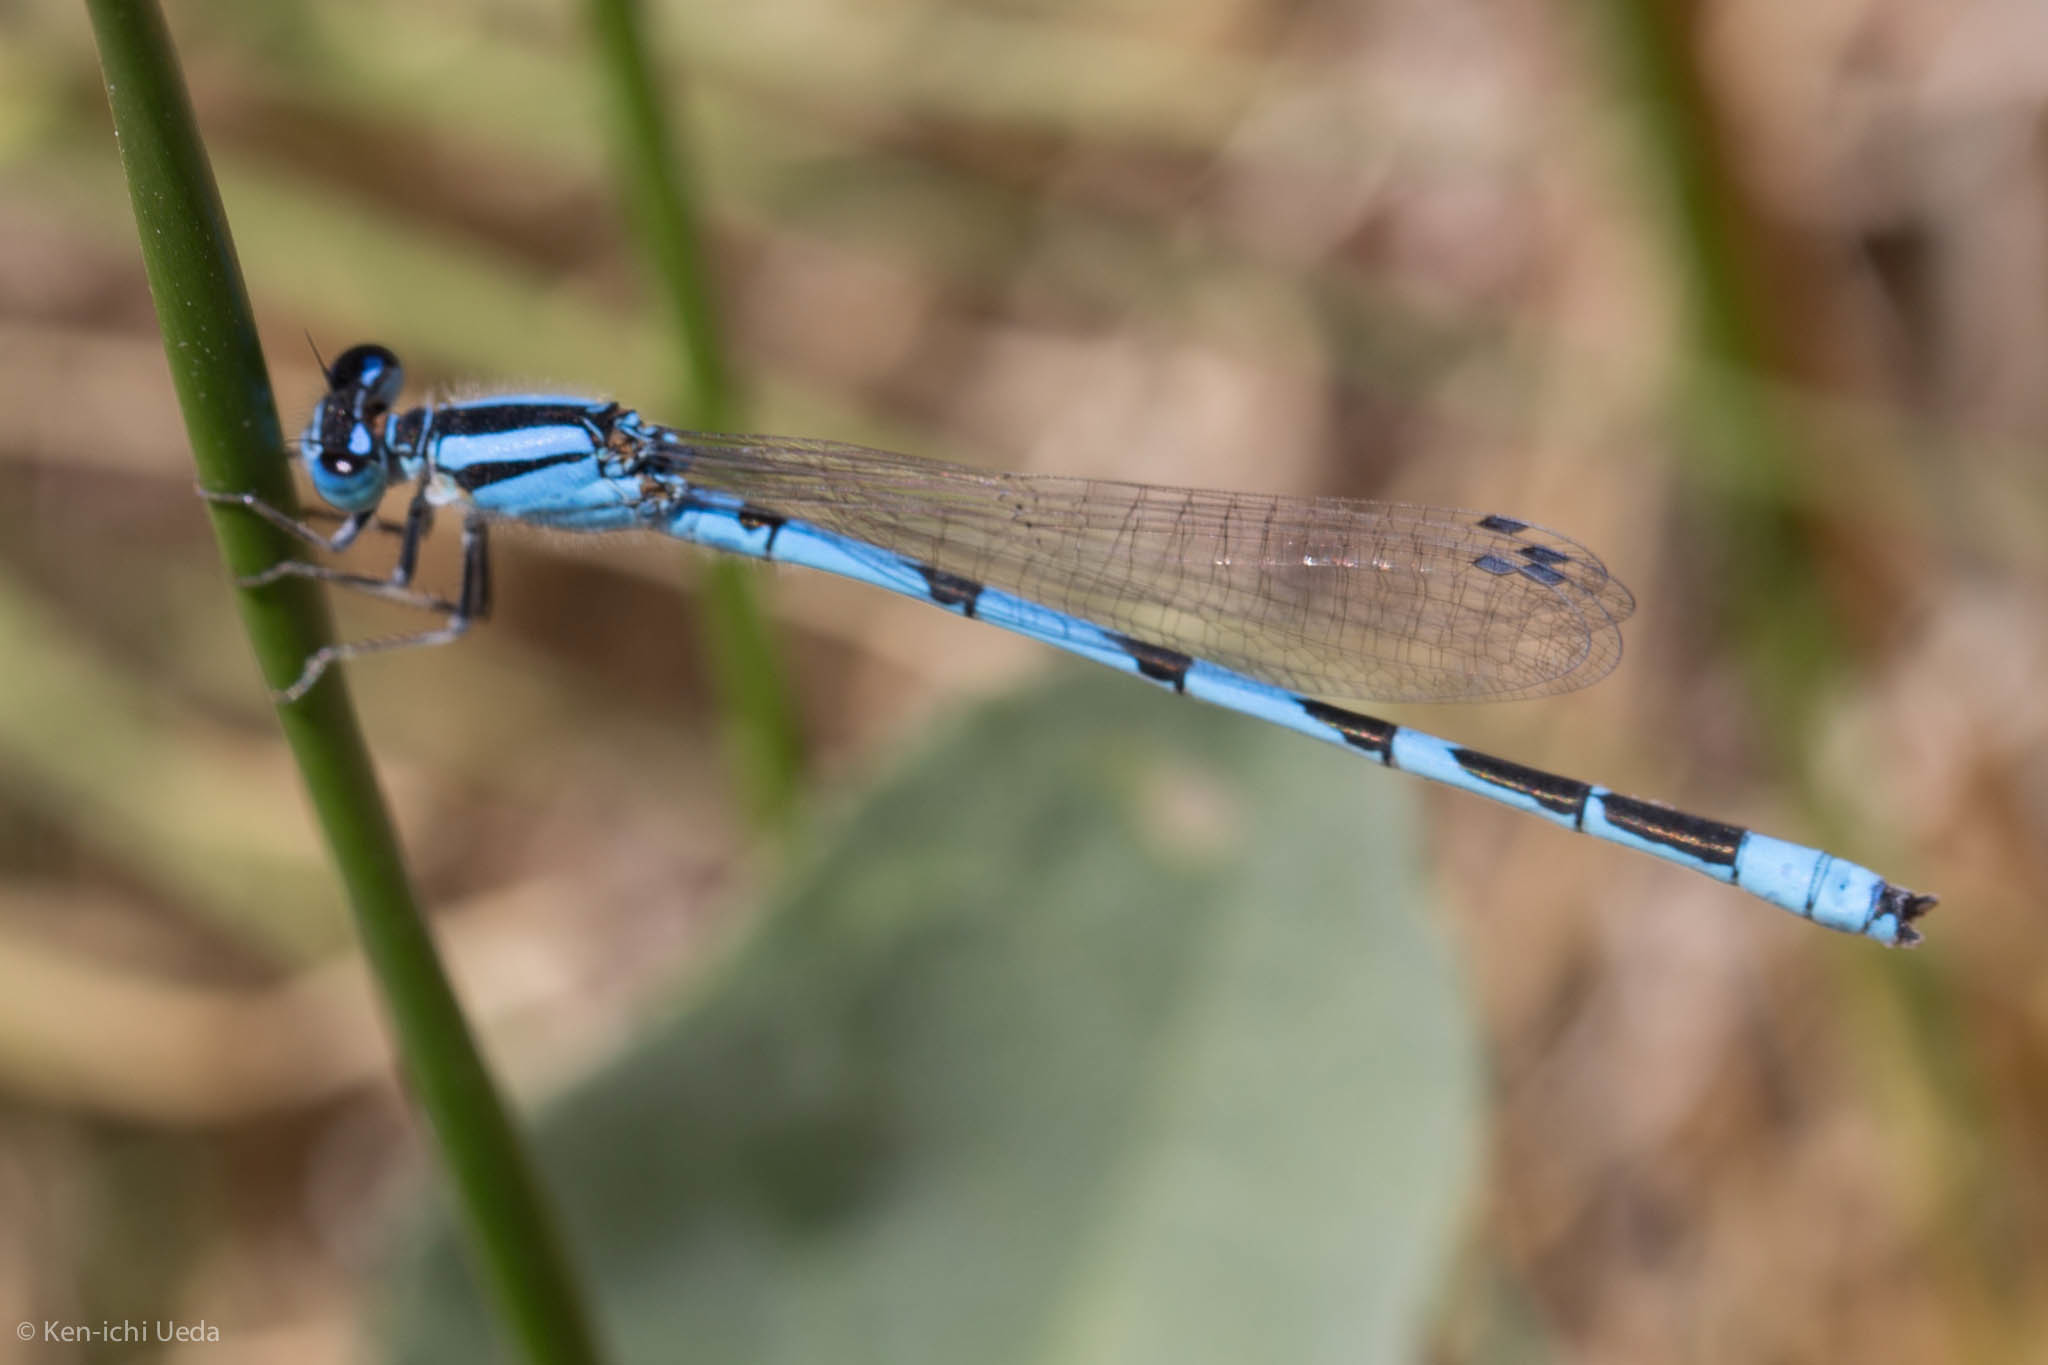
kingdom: Animalia
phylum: Arthropoda
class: Insecta
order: Odonata
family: Coenagrionidae
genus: Enallagma
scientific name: Enallagma civile
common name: Damselfly
